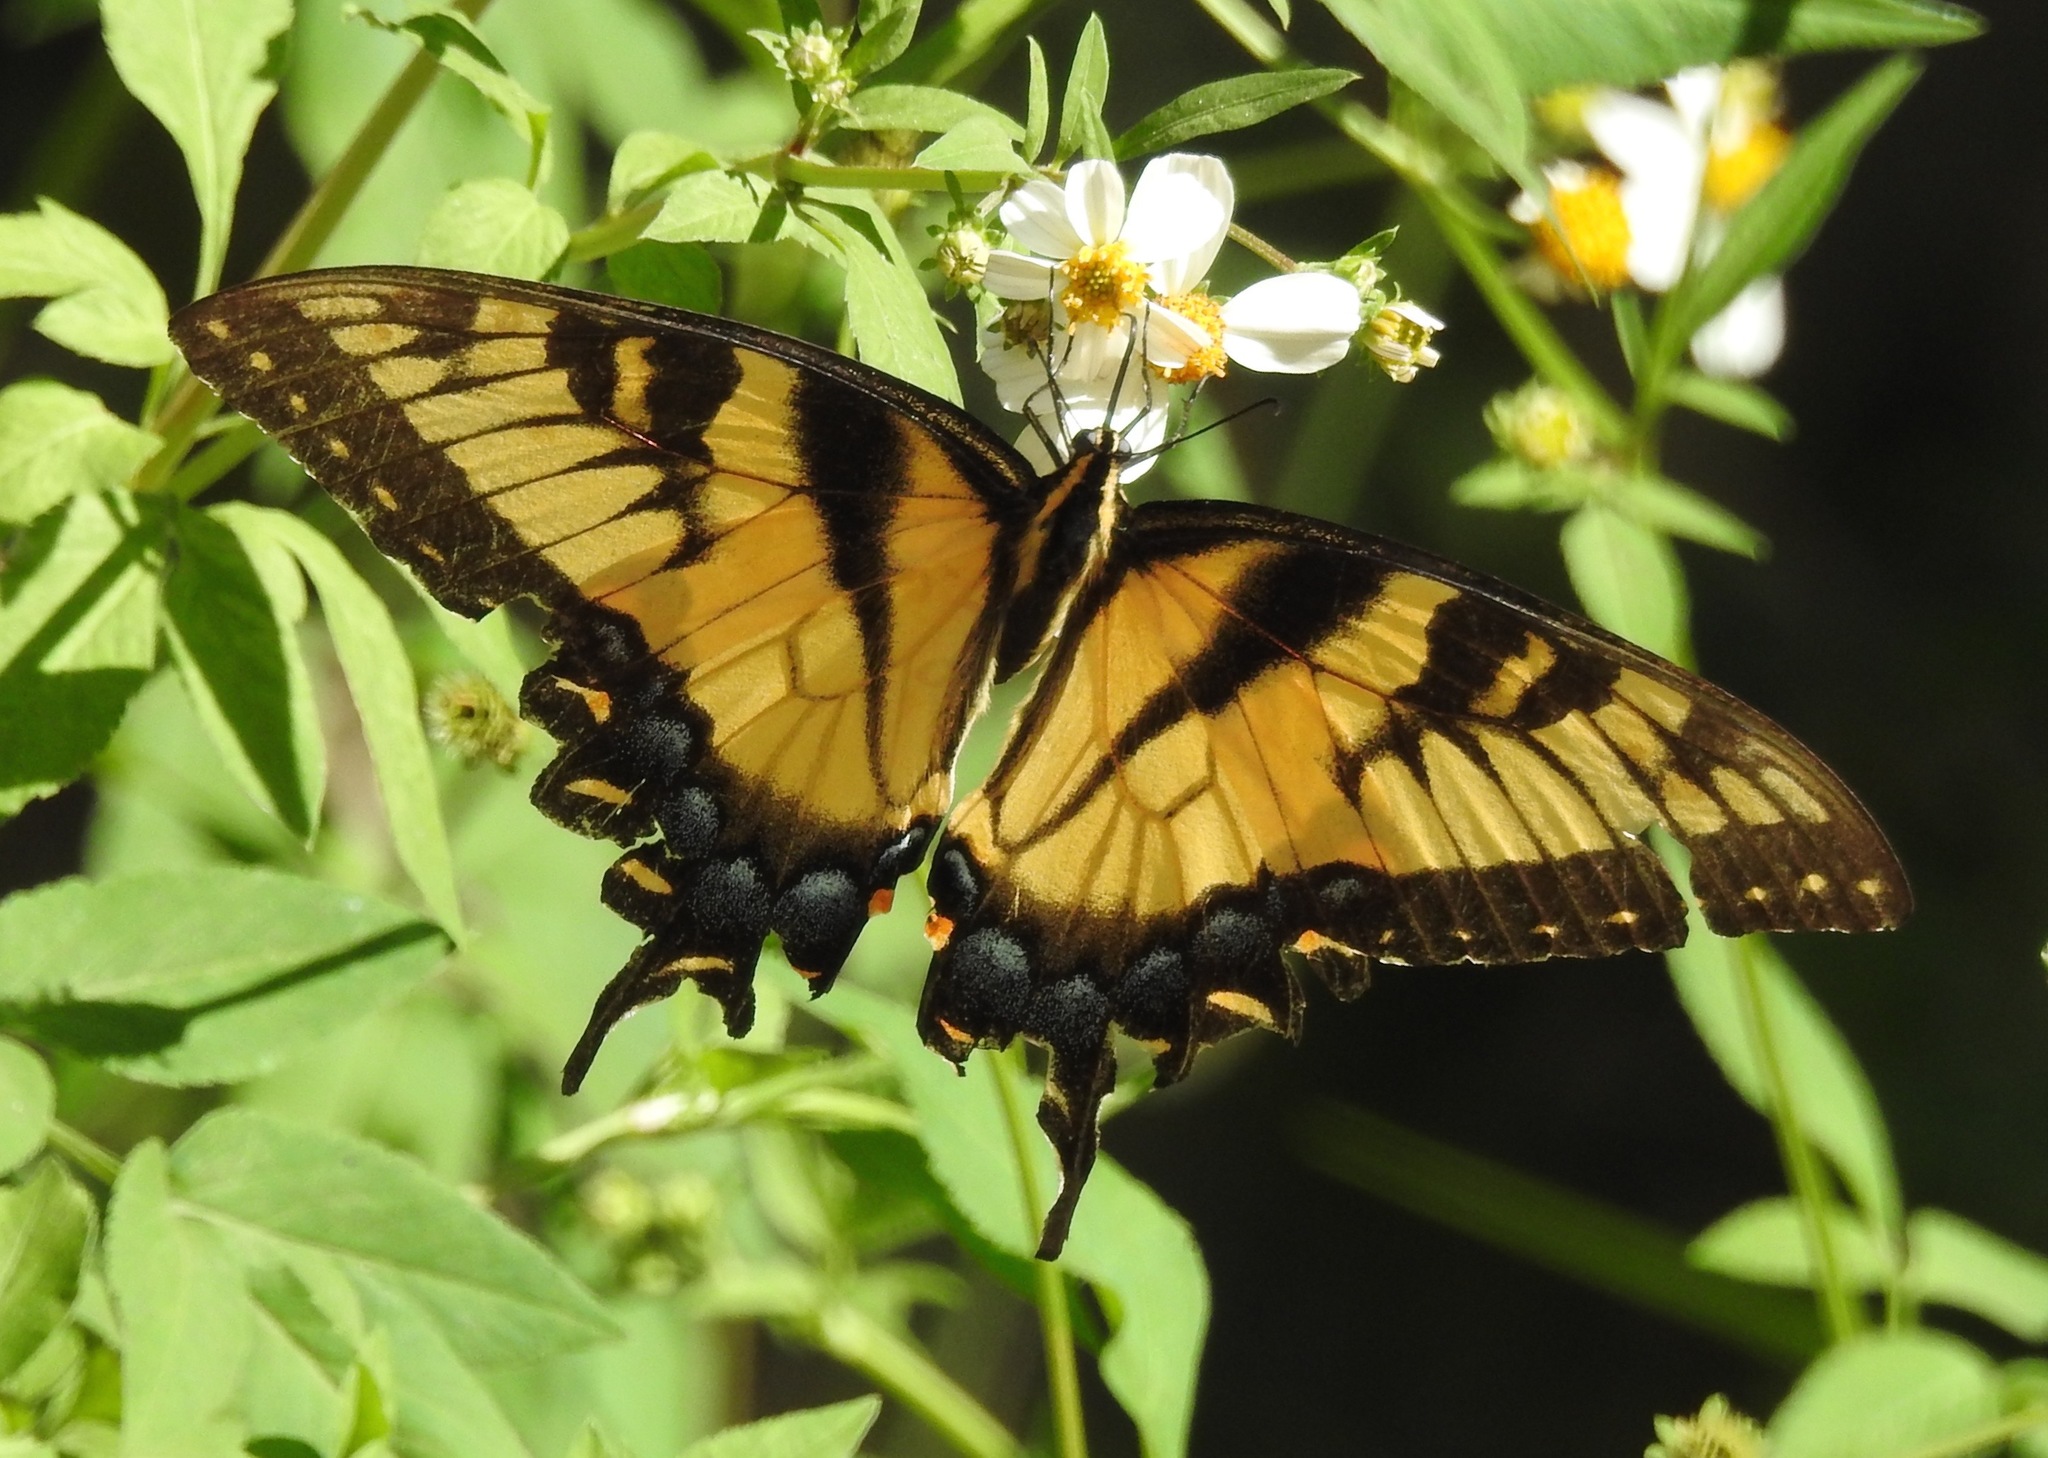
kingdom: Animalia
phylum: Arthropoda
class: Insecta
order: Lepidoptera
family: Papilionidae
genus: Papilio
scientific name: Papilio glaucus
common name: Tiger swallowtail
